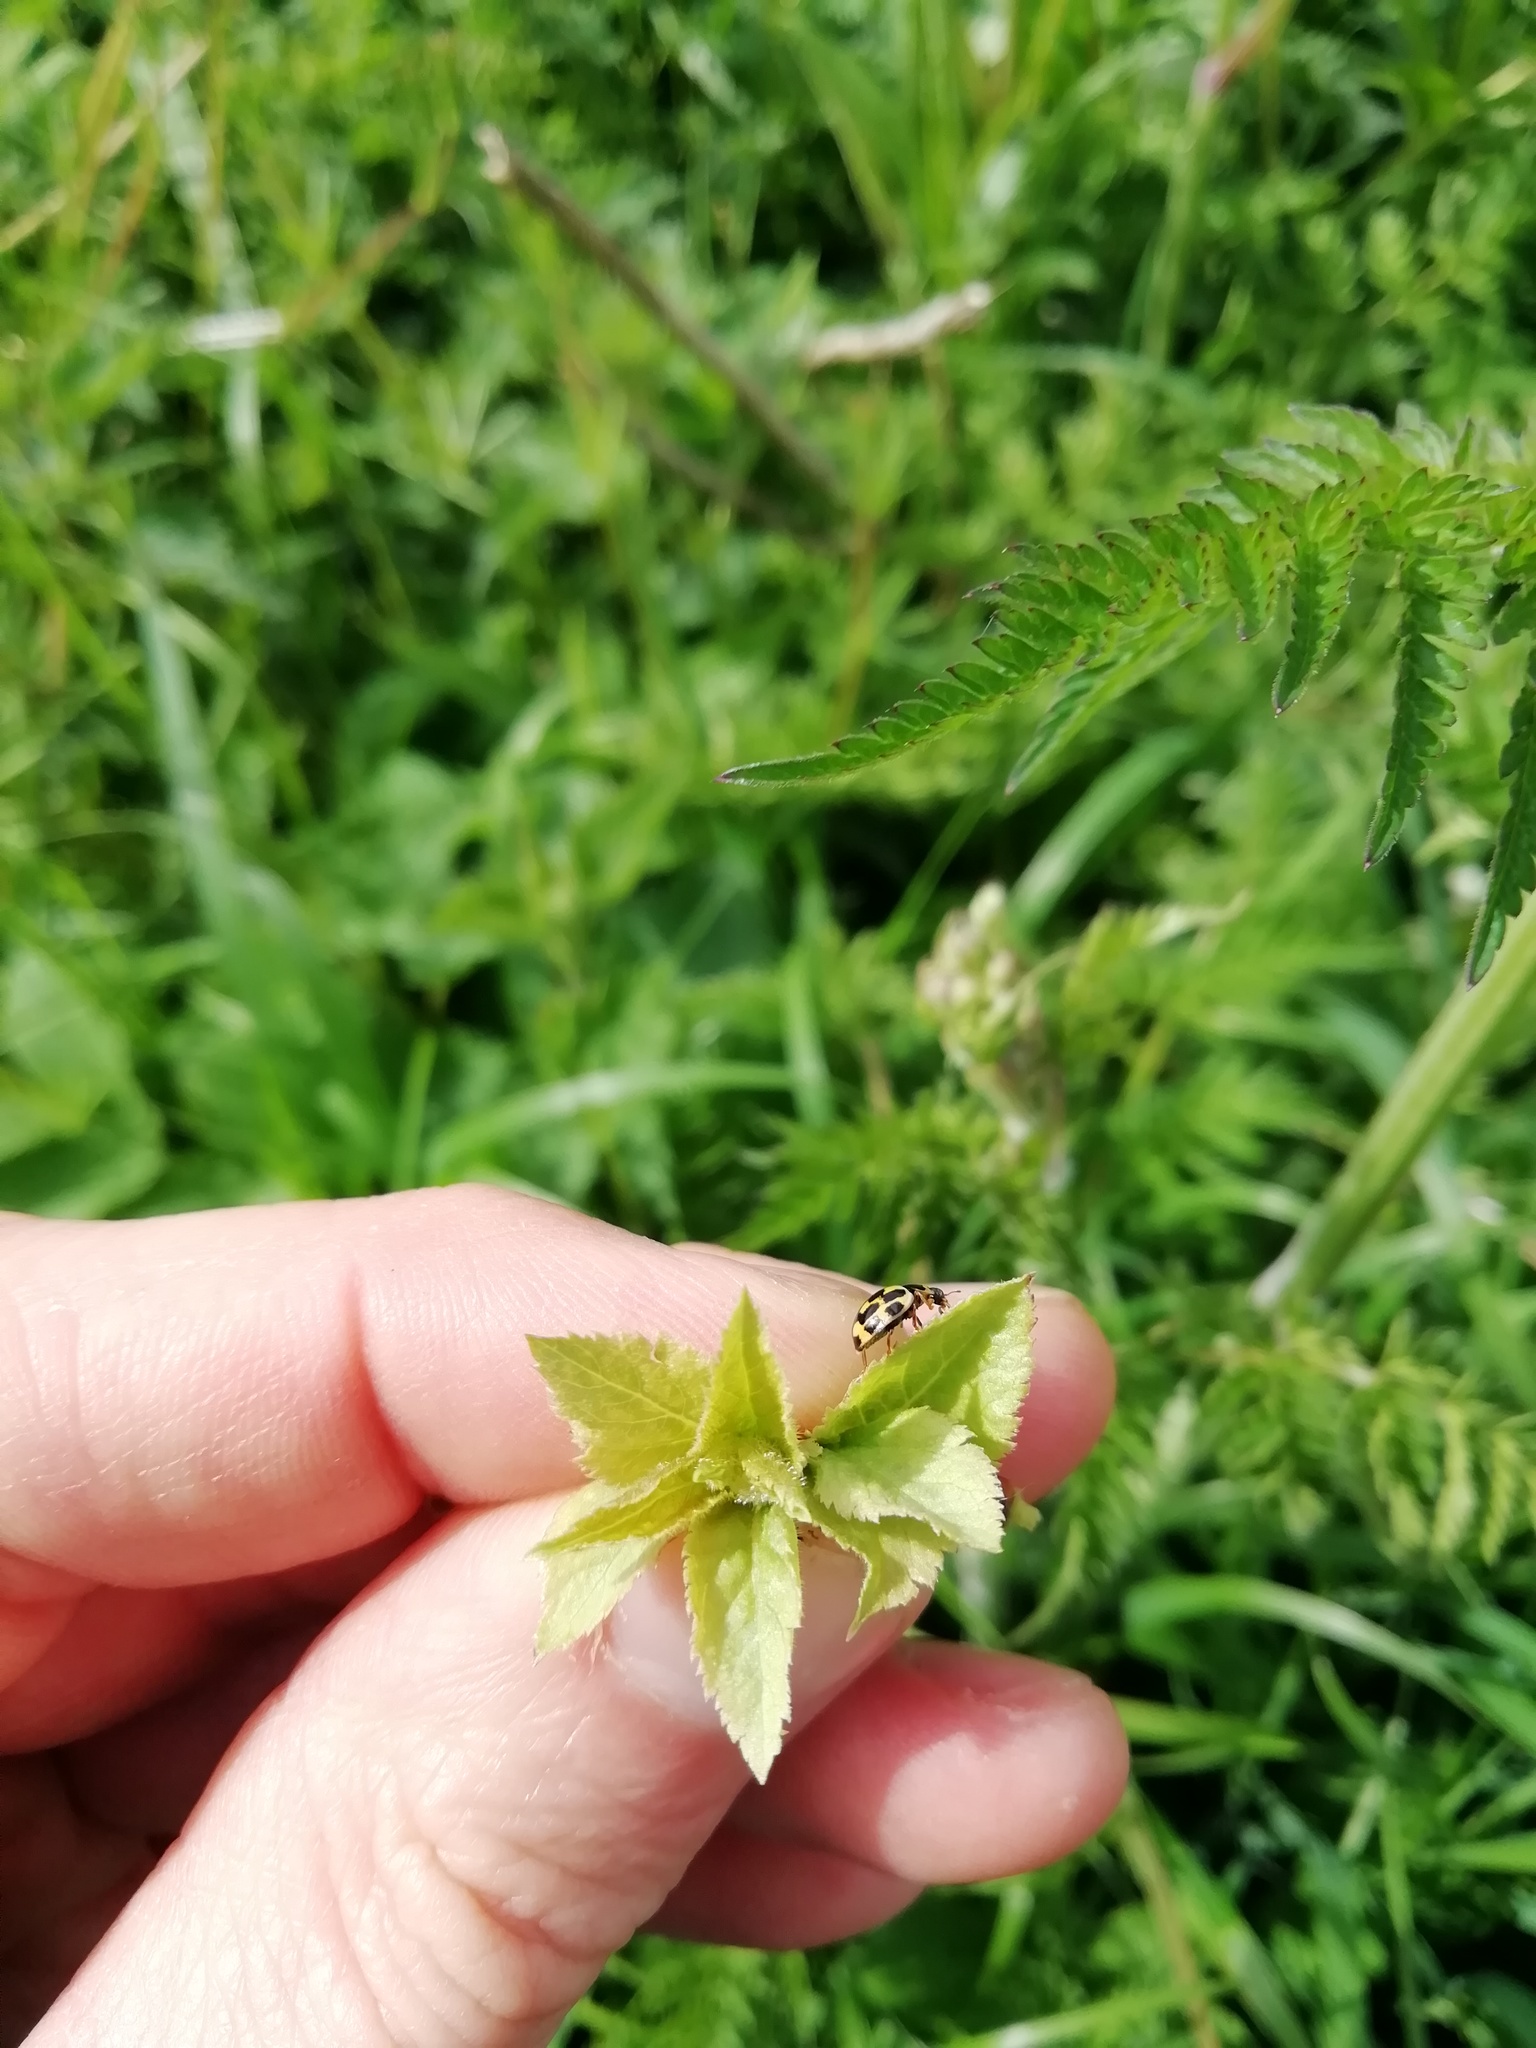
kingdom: Animalia
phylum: Arthropoda
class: Insecta
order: Coleoptera
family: Coccinellidae
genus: Propylaea
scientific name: Propylaea quatuordecimpunctata
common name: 14-spotted ladybird beetle
